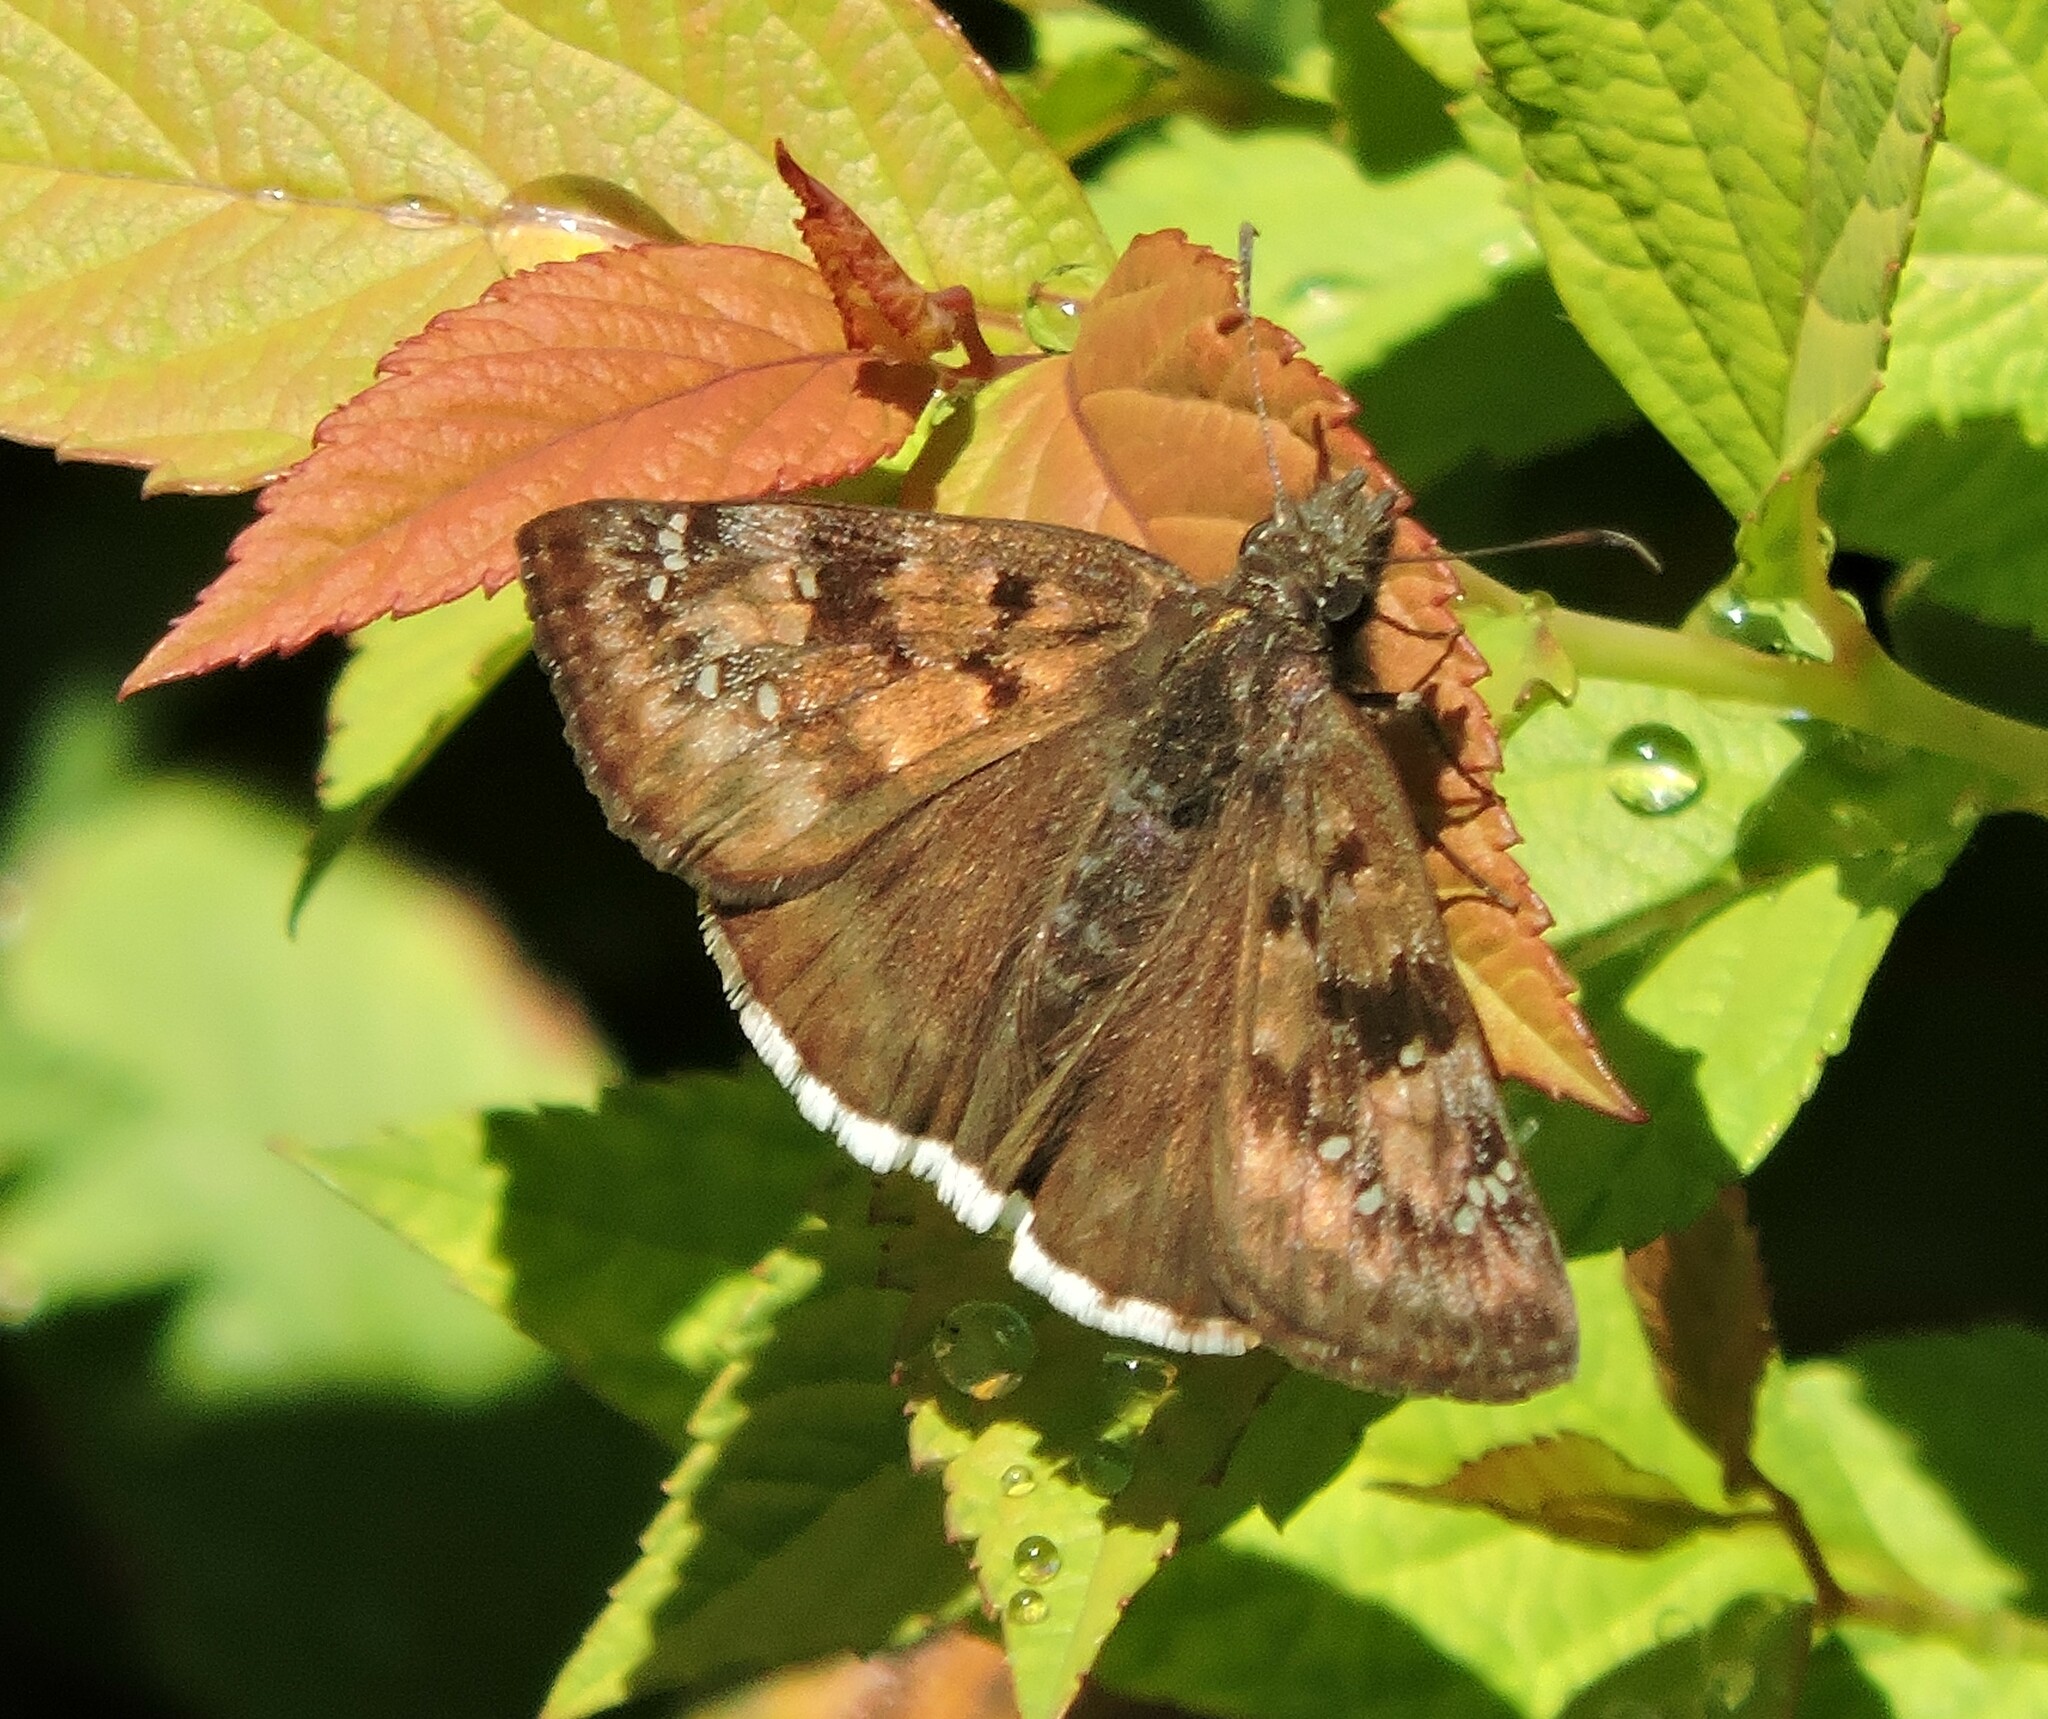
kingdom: Animalia
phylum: Arthropoda
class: Insecta
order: Lepidoptera
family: Hesperiidae
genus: Erynnis
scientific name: Erynnis tristis
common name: Mournful duskywing
